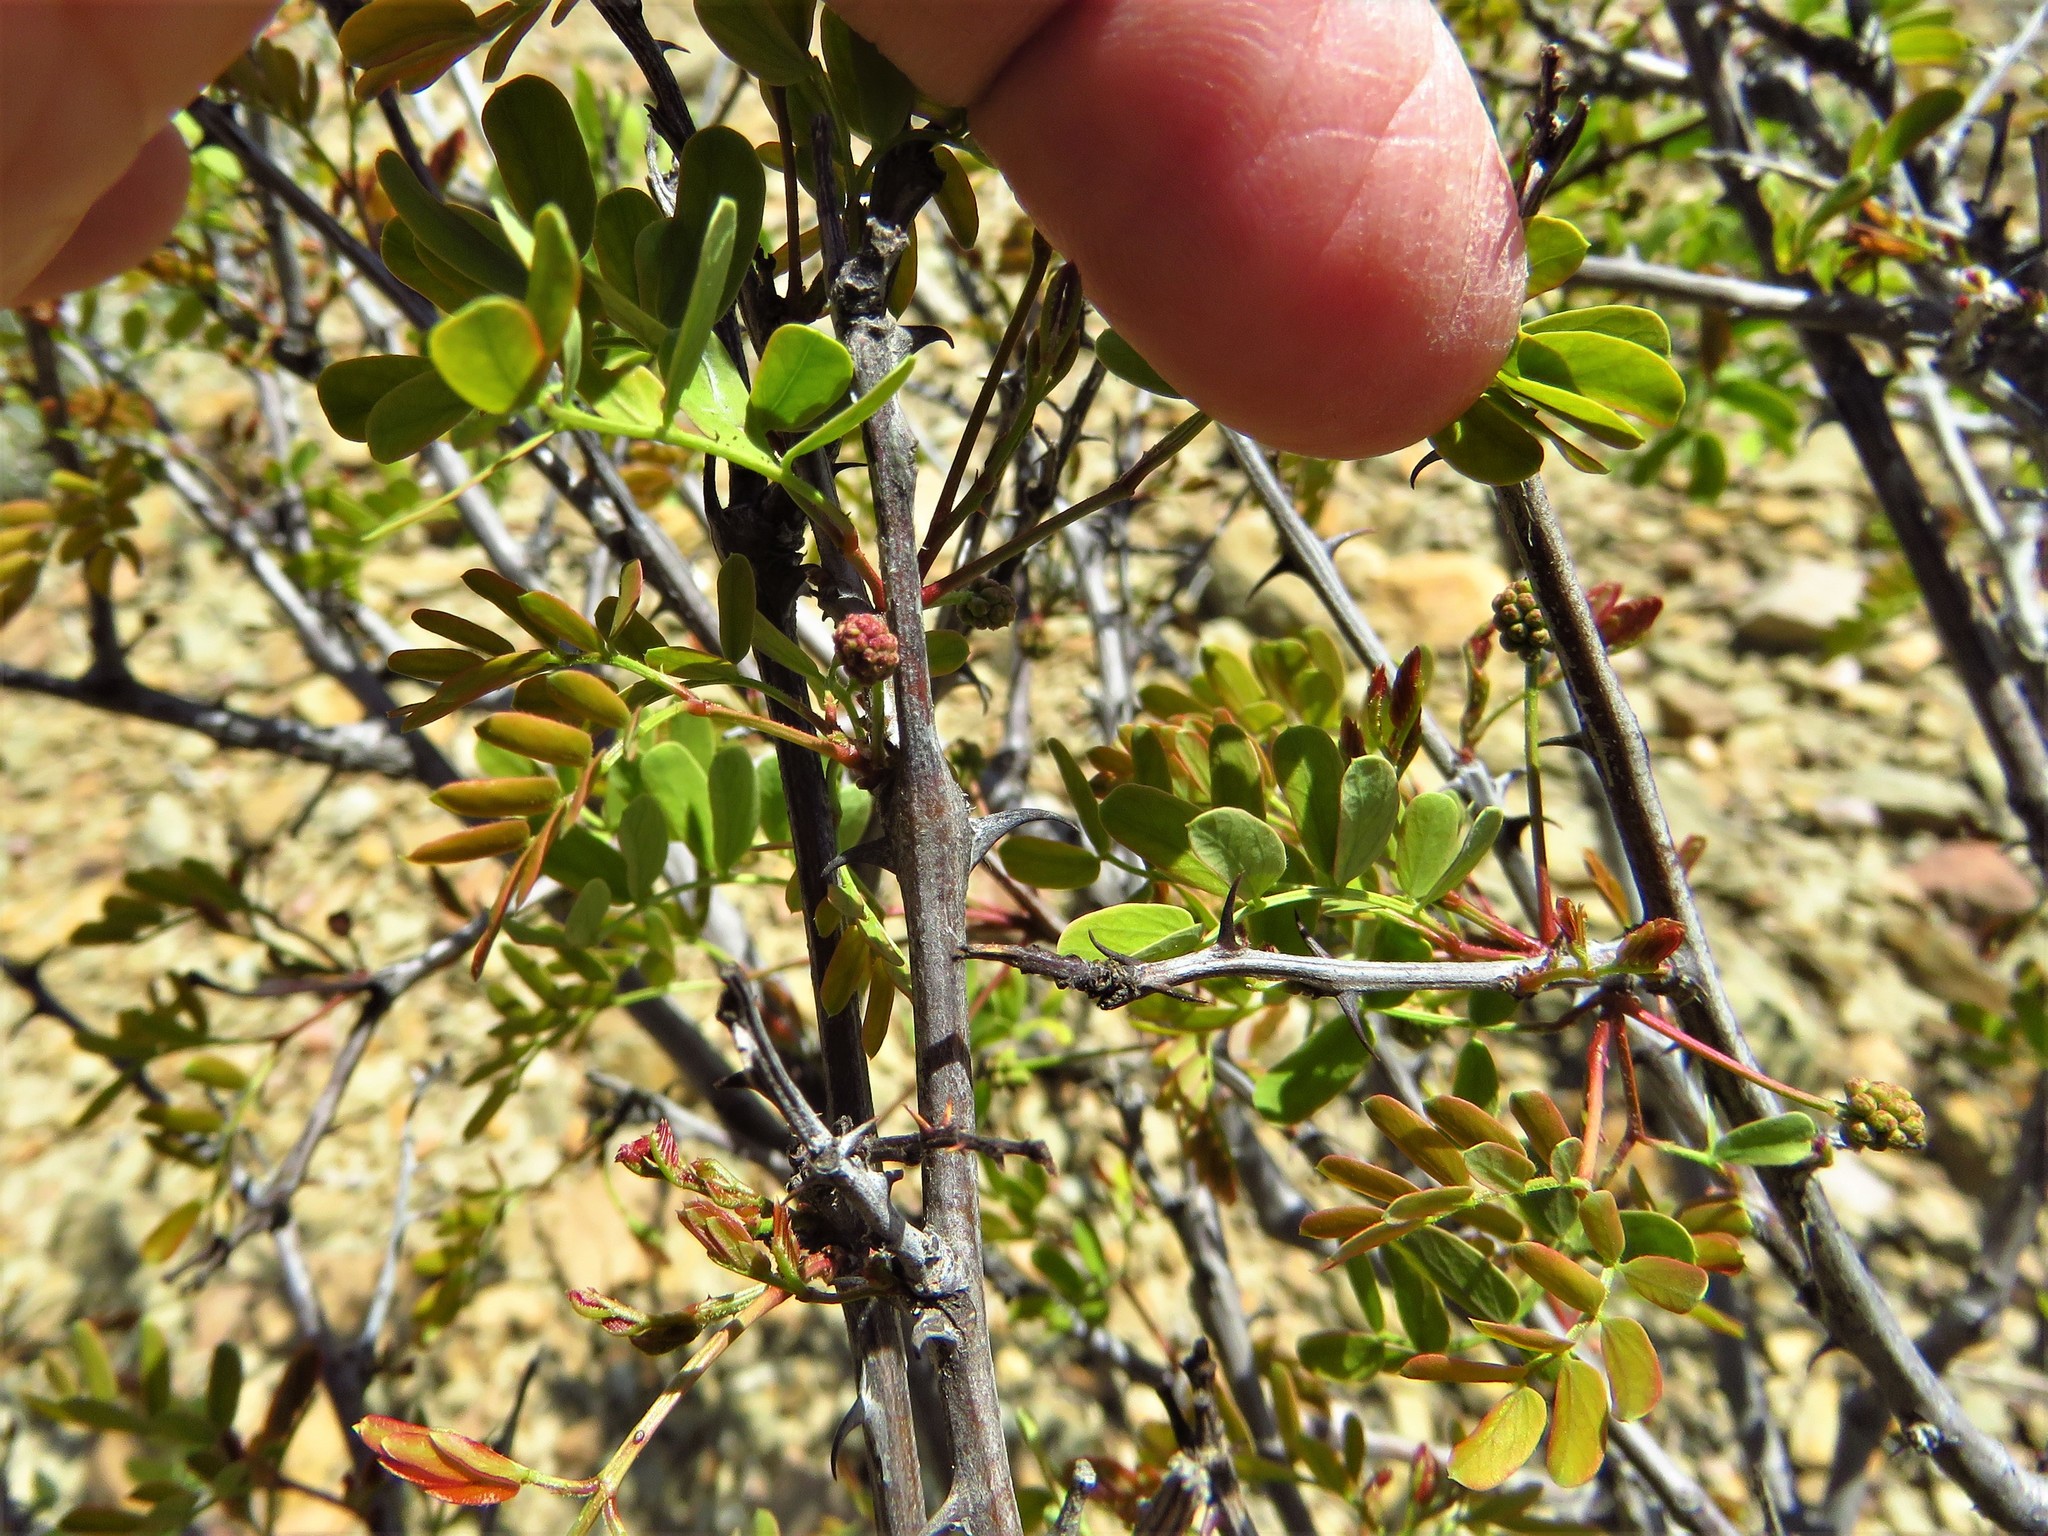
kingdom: Plantae
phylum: Tracheophyta
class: Magnoliopsida
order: Fabales
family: Fabaceae
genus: Senegalia
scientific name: Senegalia roemeriana
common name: Roemer's acacia
